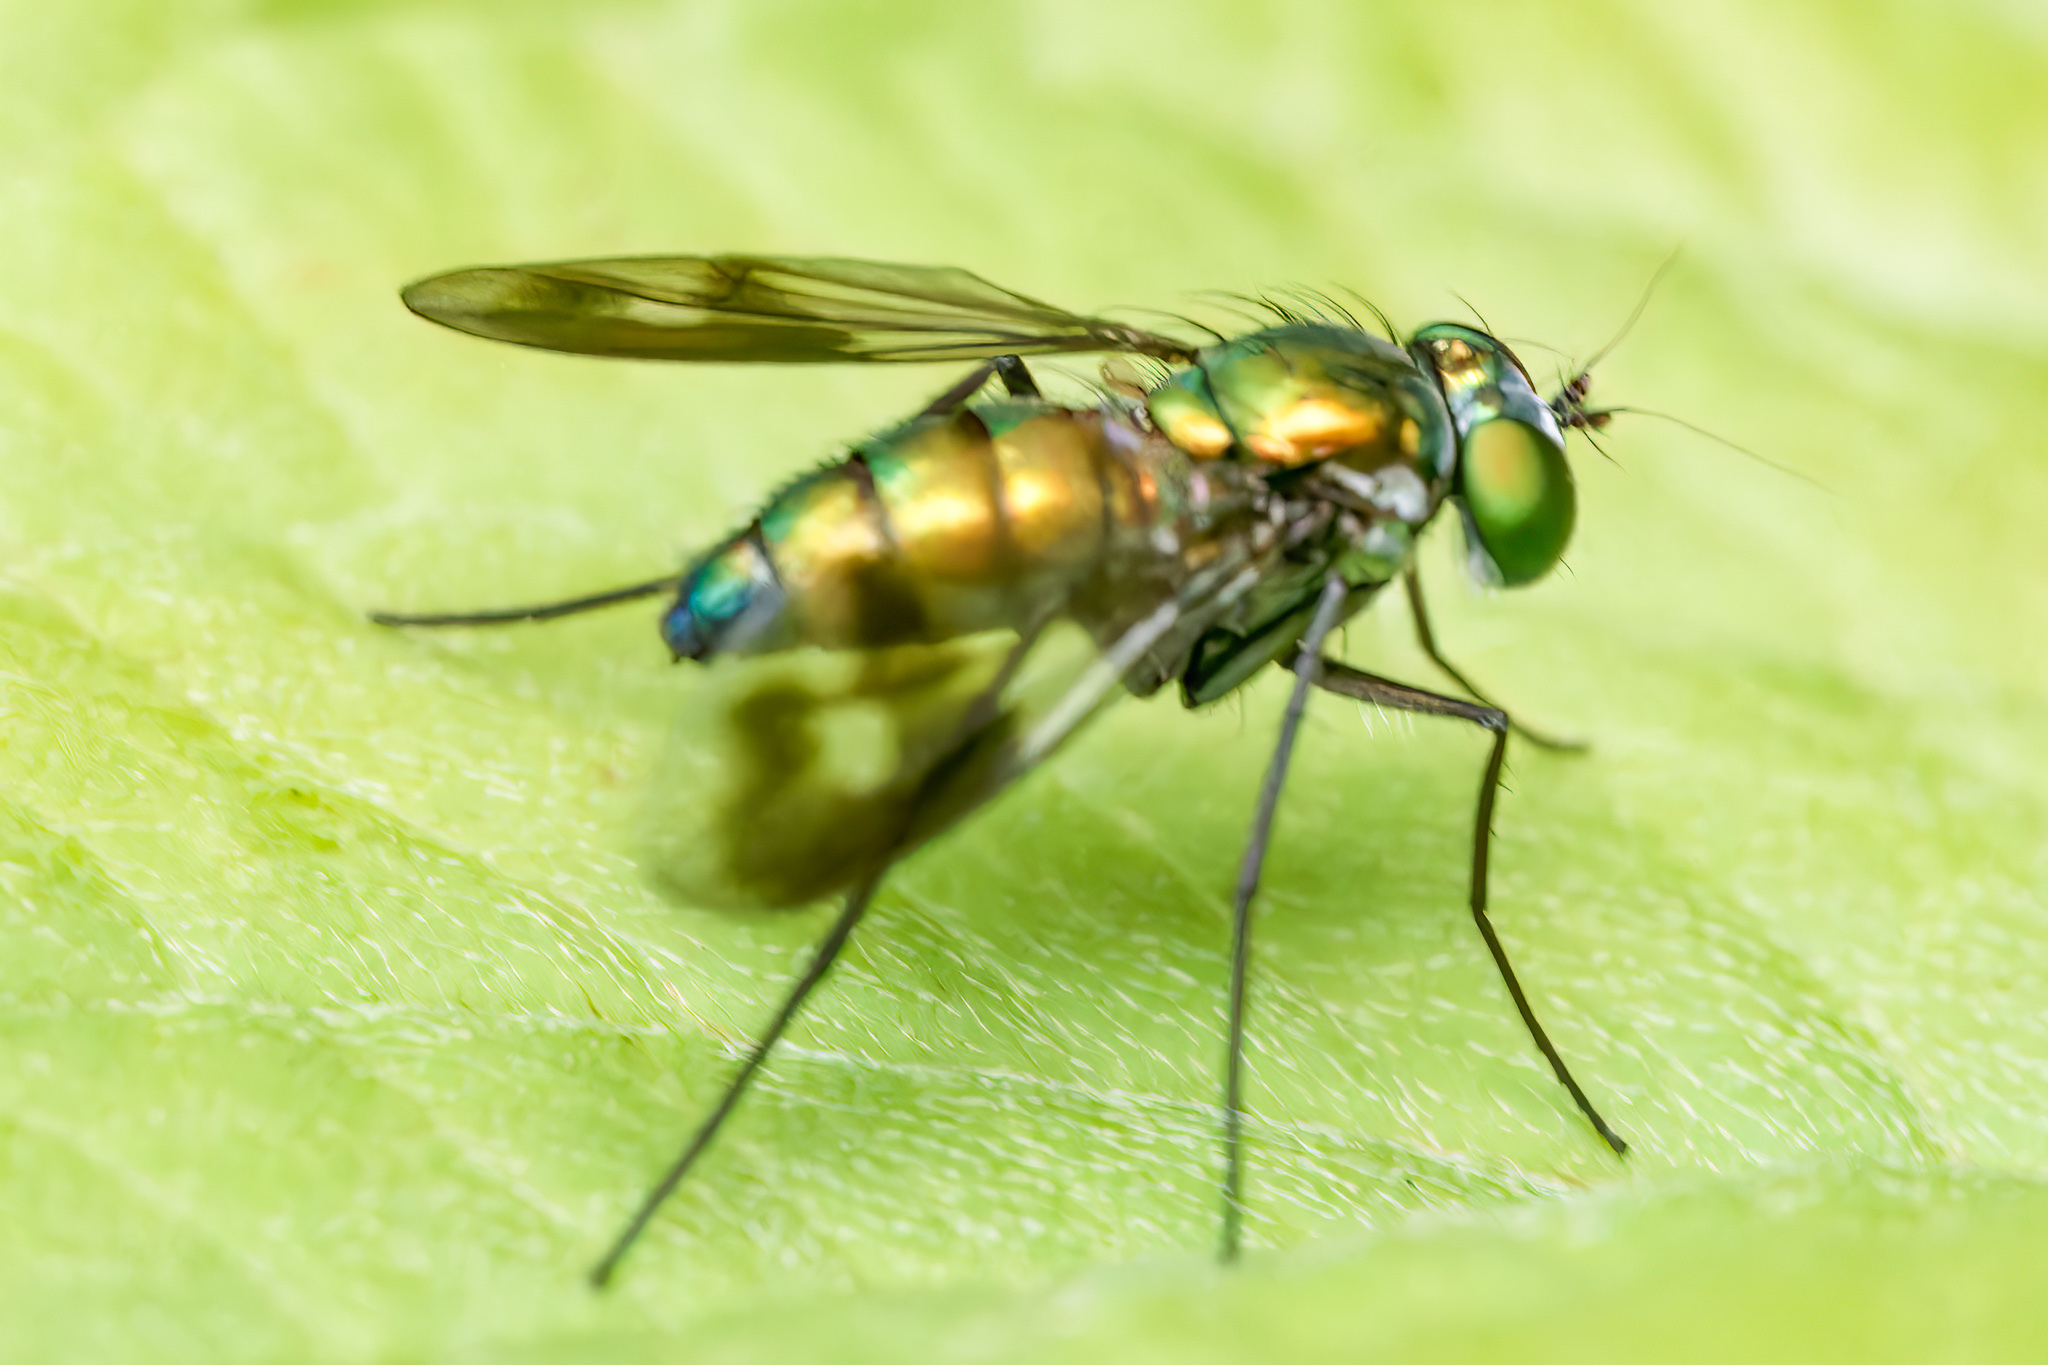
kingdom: Animalia
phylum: Arthropoda
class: Insecta
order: Diptera
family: Dolichopodidae
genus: Condylostylus
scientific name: Condylostylus patibulatus
